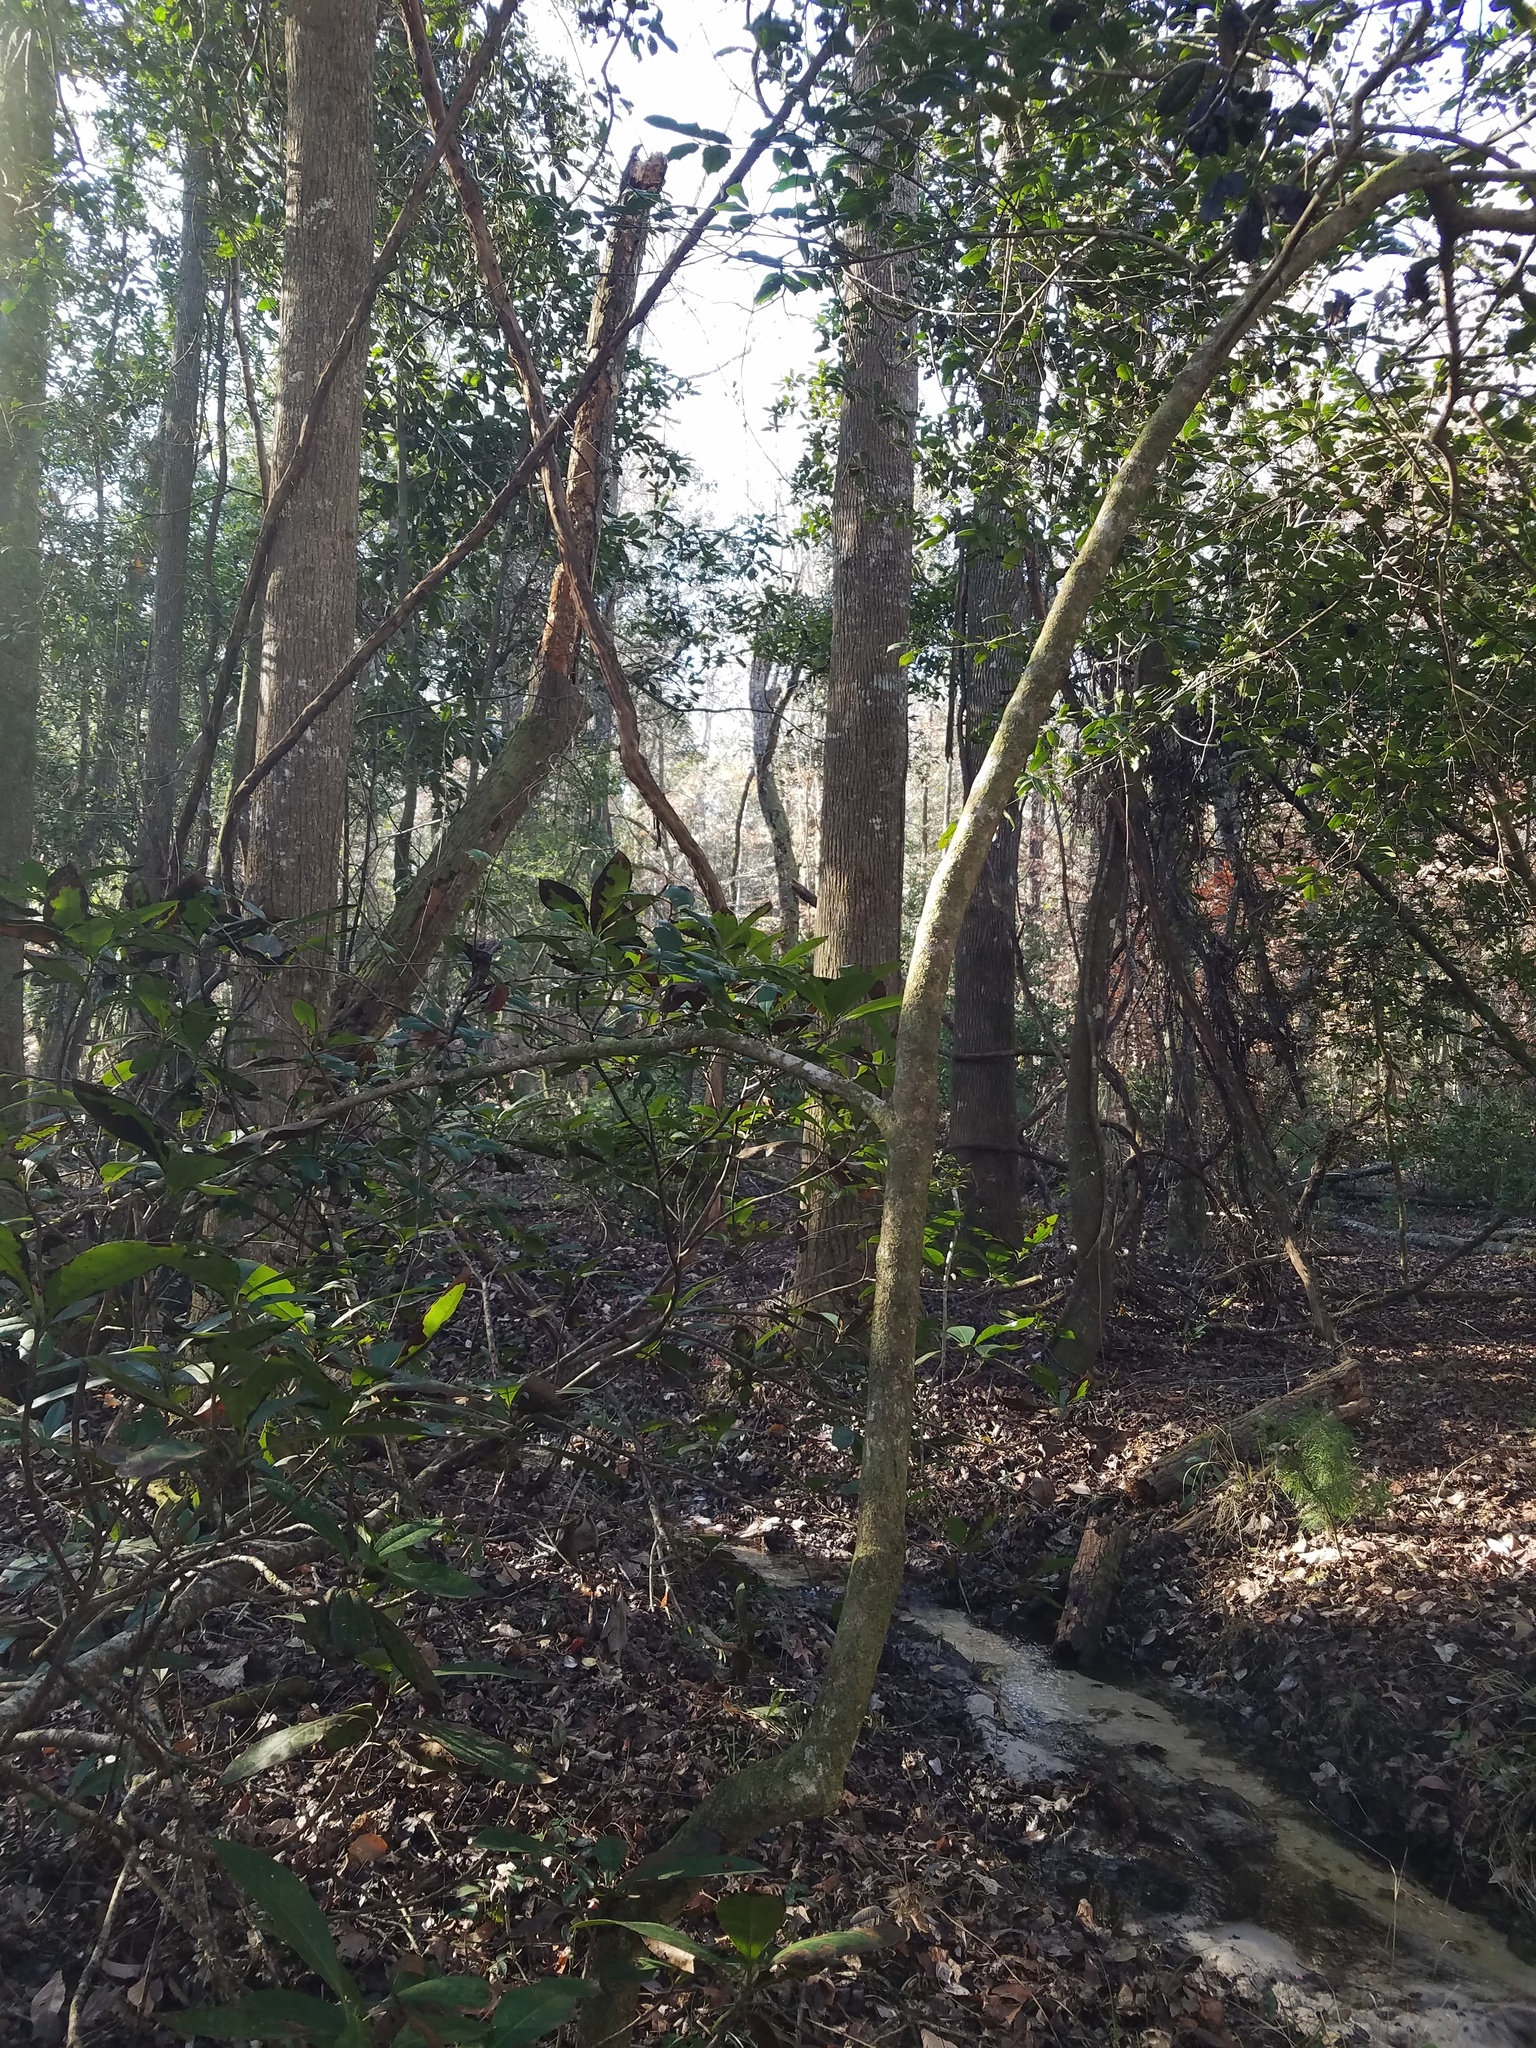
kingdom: Plantae
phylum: Tracheophyta
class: Magnoliopsida
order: Aquifoliales
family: Aquifoliaceae
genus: Ilex
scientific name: Ilex opaca
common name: American holly
